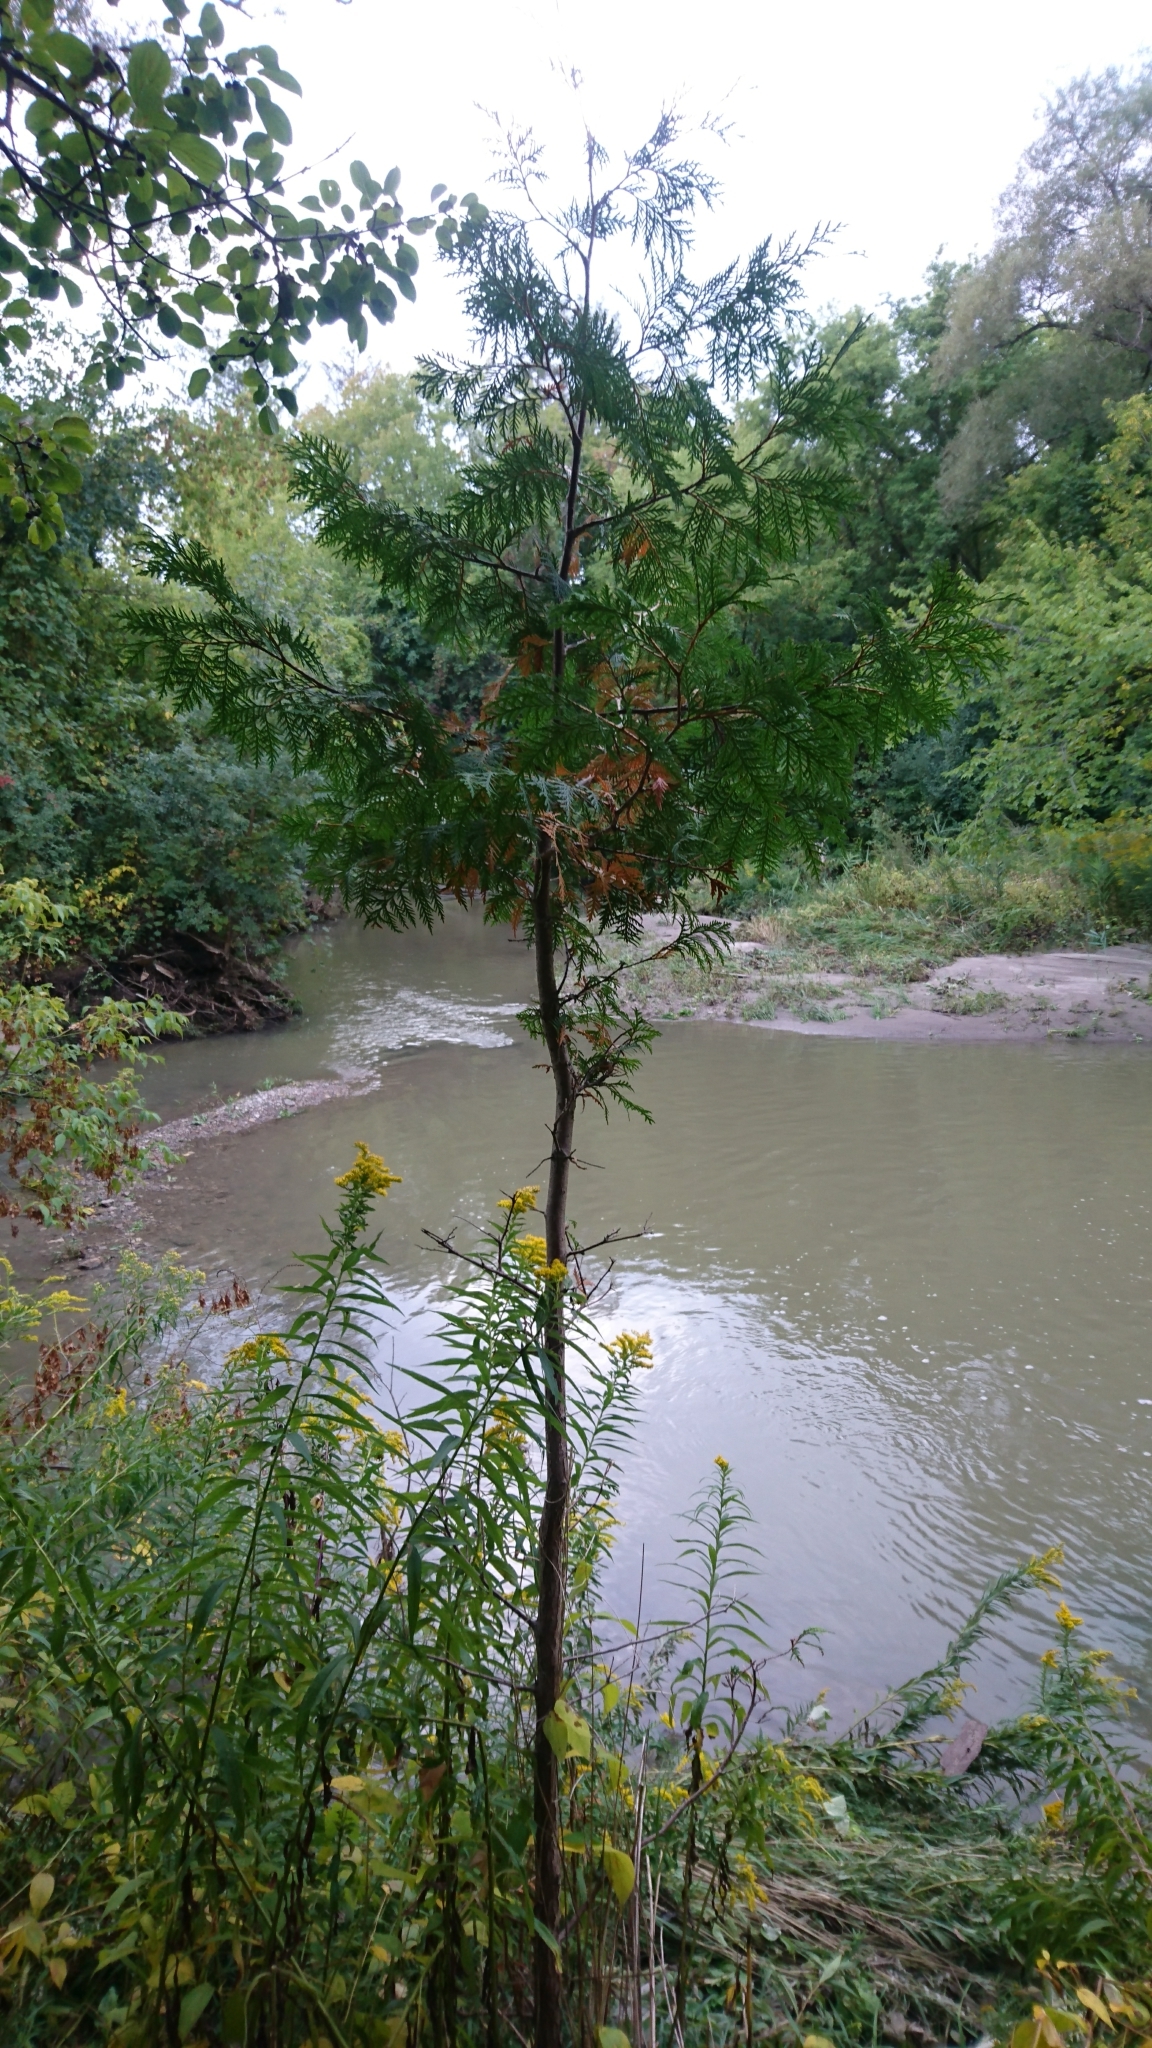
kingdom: Plantae
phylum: Tracheophyta
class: Pinopsida
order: Pinales
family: Cupressaceae
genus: Thuja
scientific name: Thuja occidentalis
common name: Northern white-cedar
